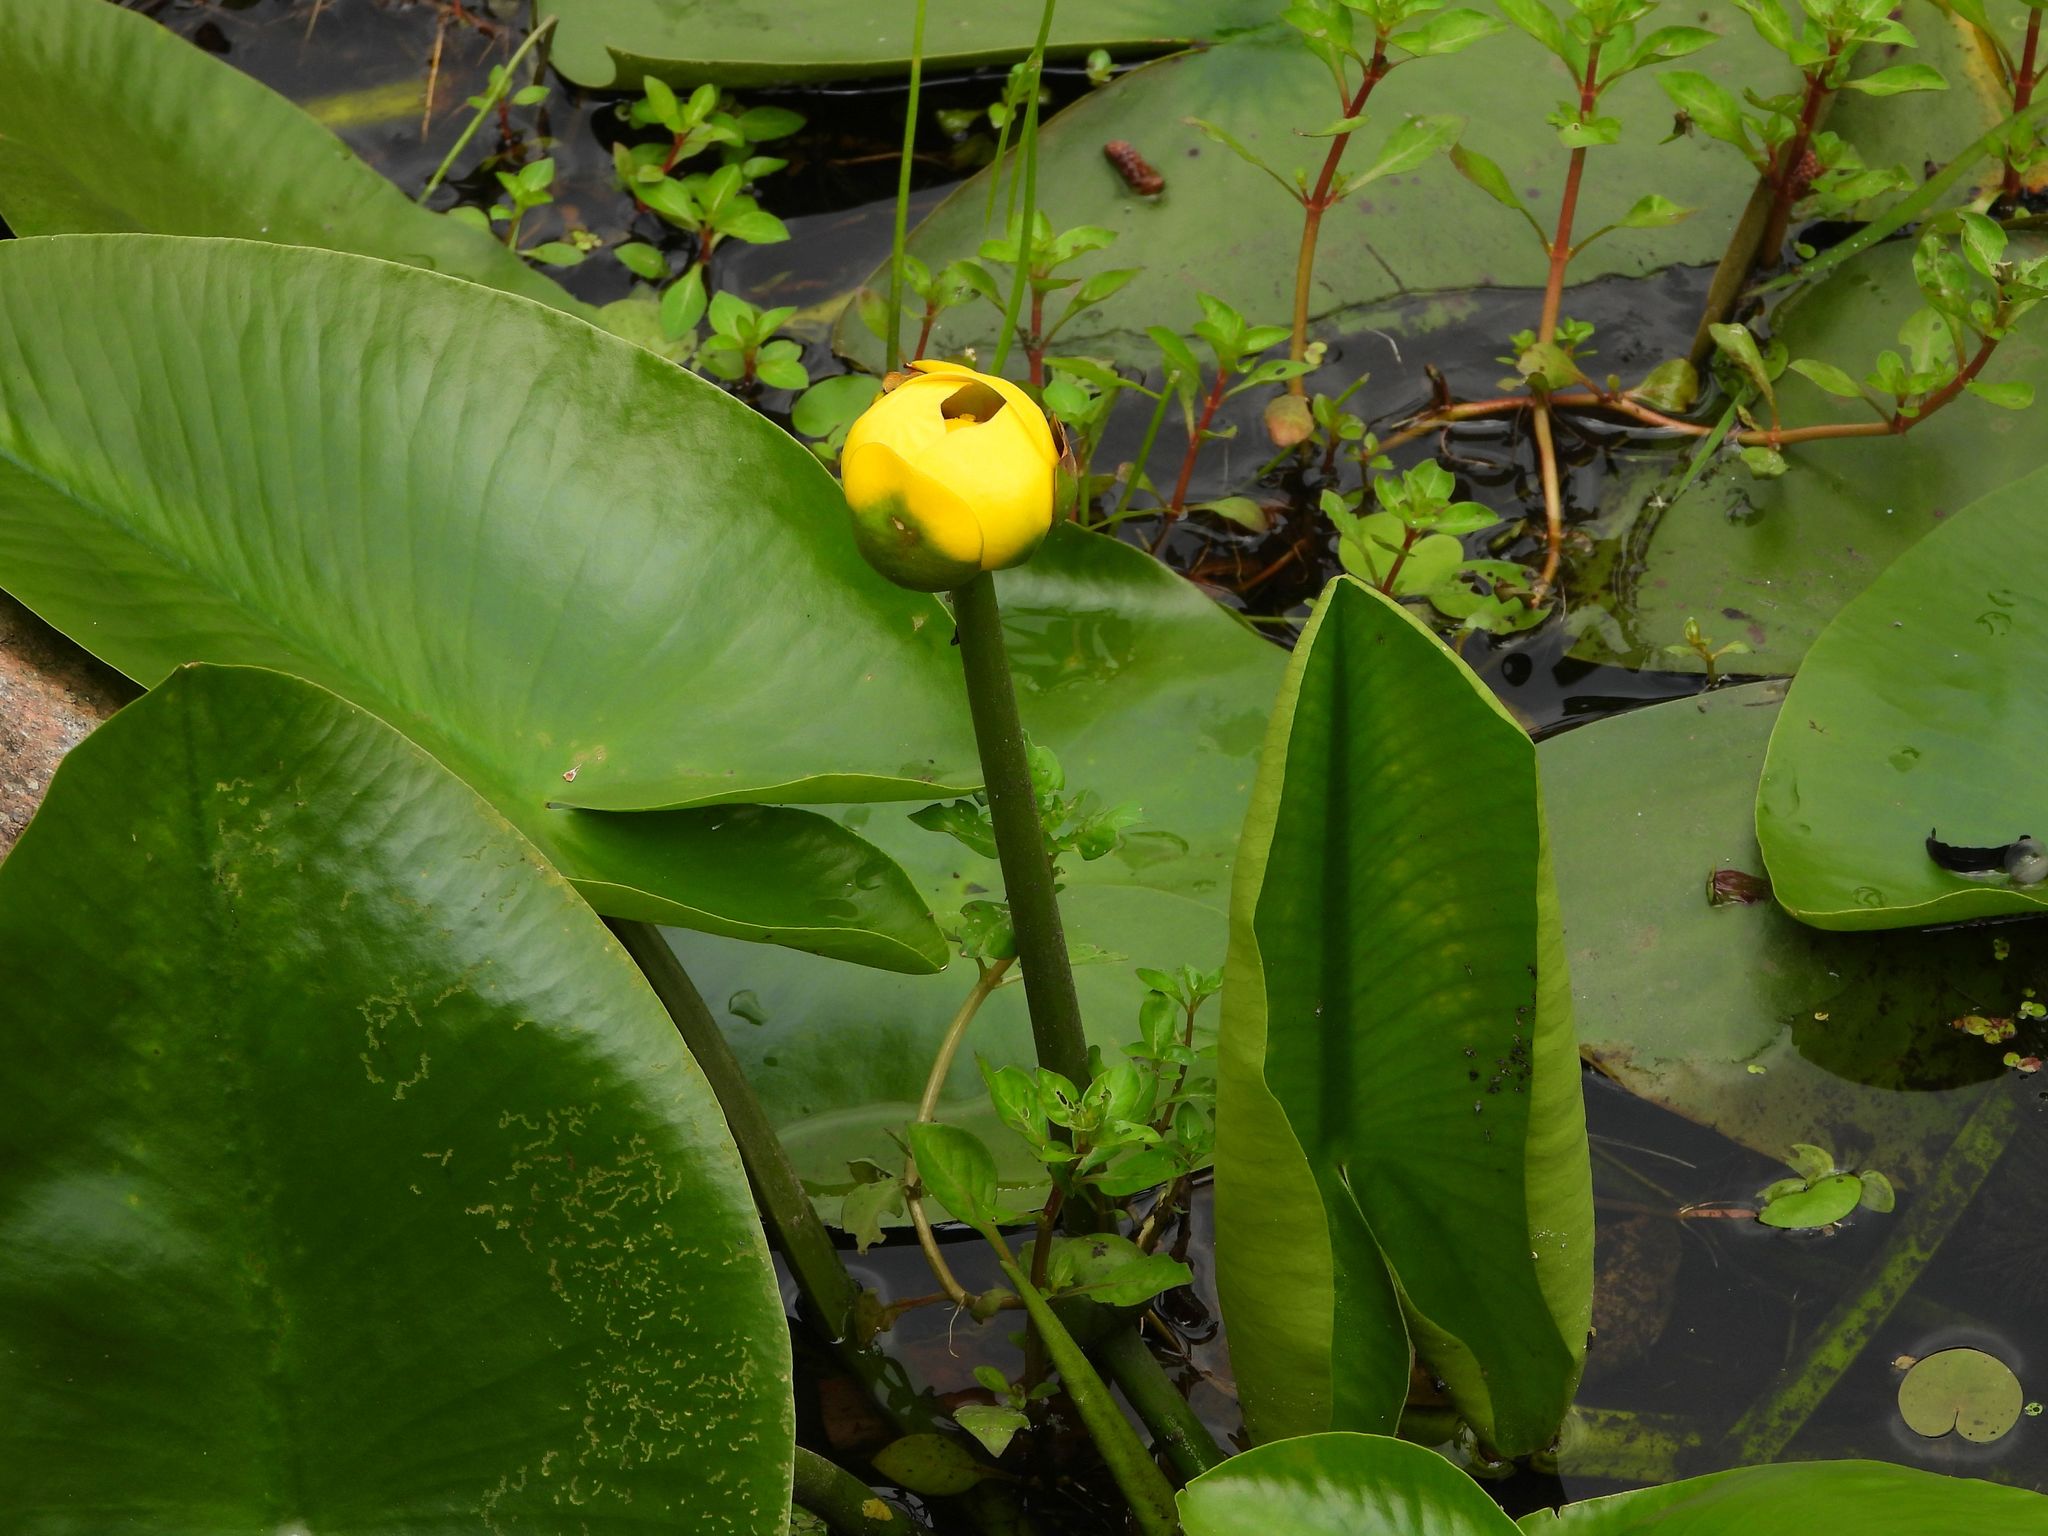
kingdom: Plantae
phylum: Tracheophyta
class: Magnoliopsida
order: Nymphaeales
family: Nymphaeaceae
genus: Nuphar
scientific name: Nuphar variegata
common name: Beaver-root
